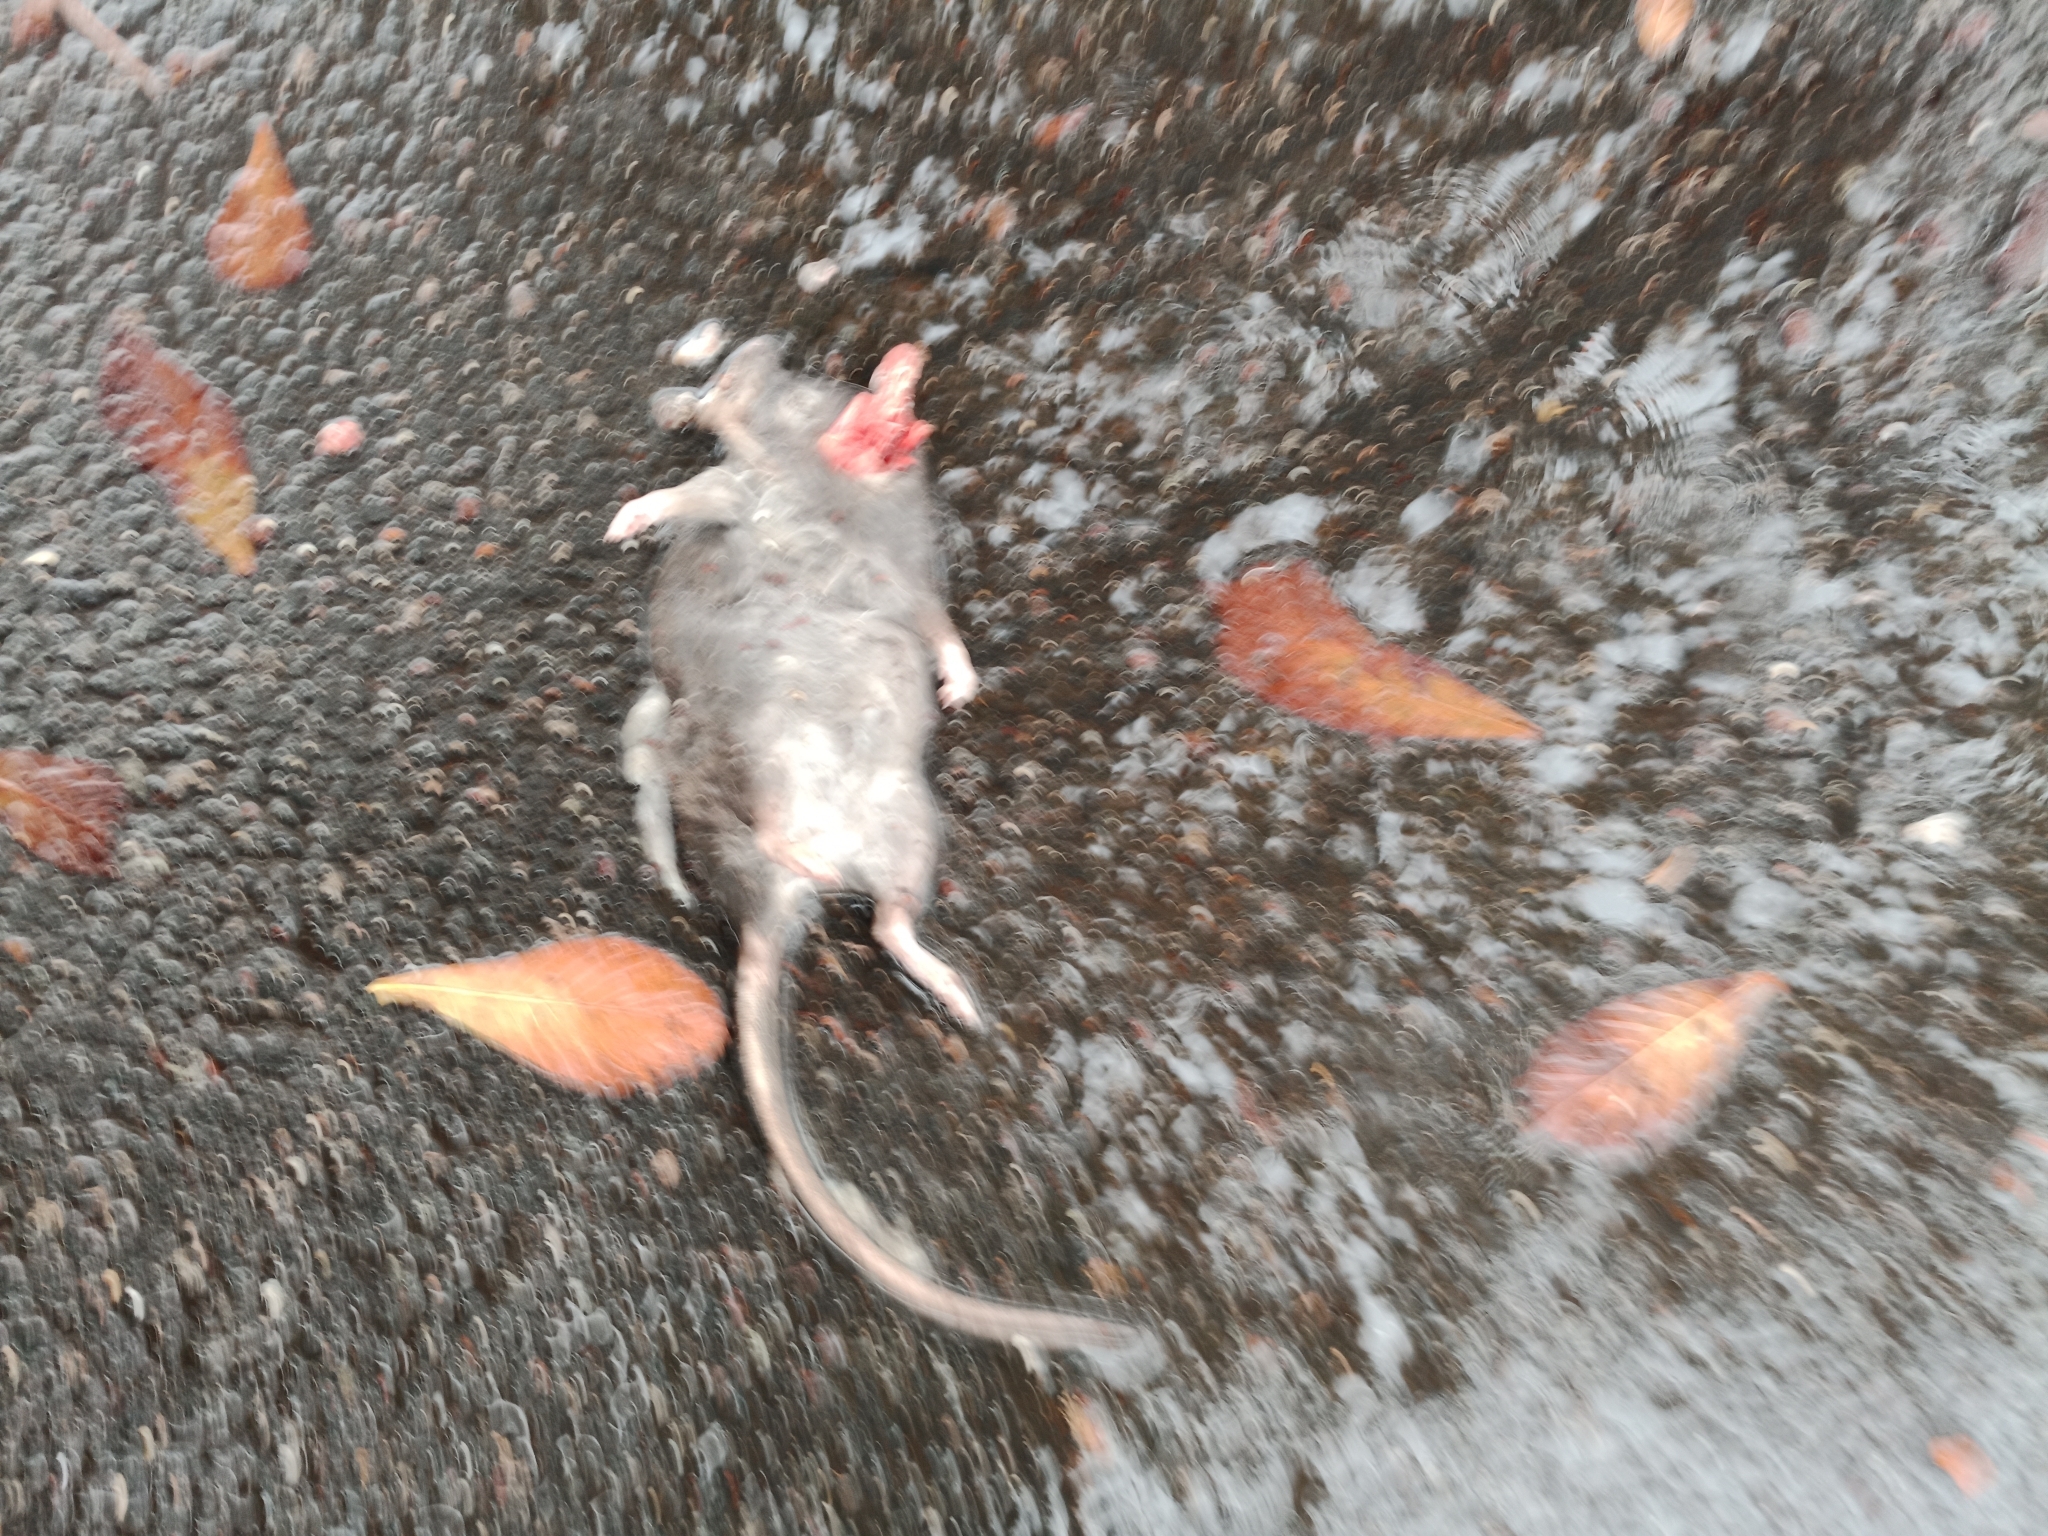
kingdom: Animalia
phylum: Chordata
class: Mammalia
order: Rodentia
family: Muridae
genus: Rattus
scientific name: Rattus norvegicus
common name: Brown rat
